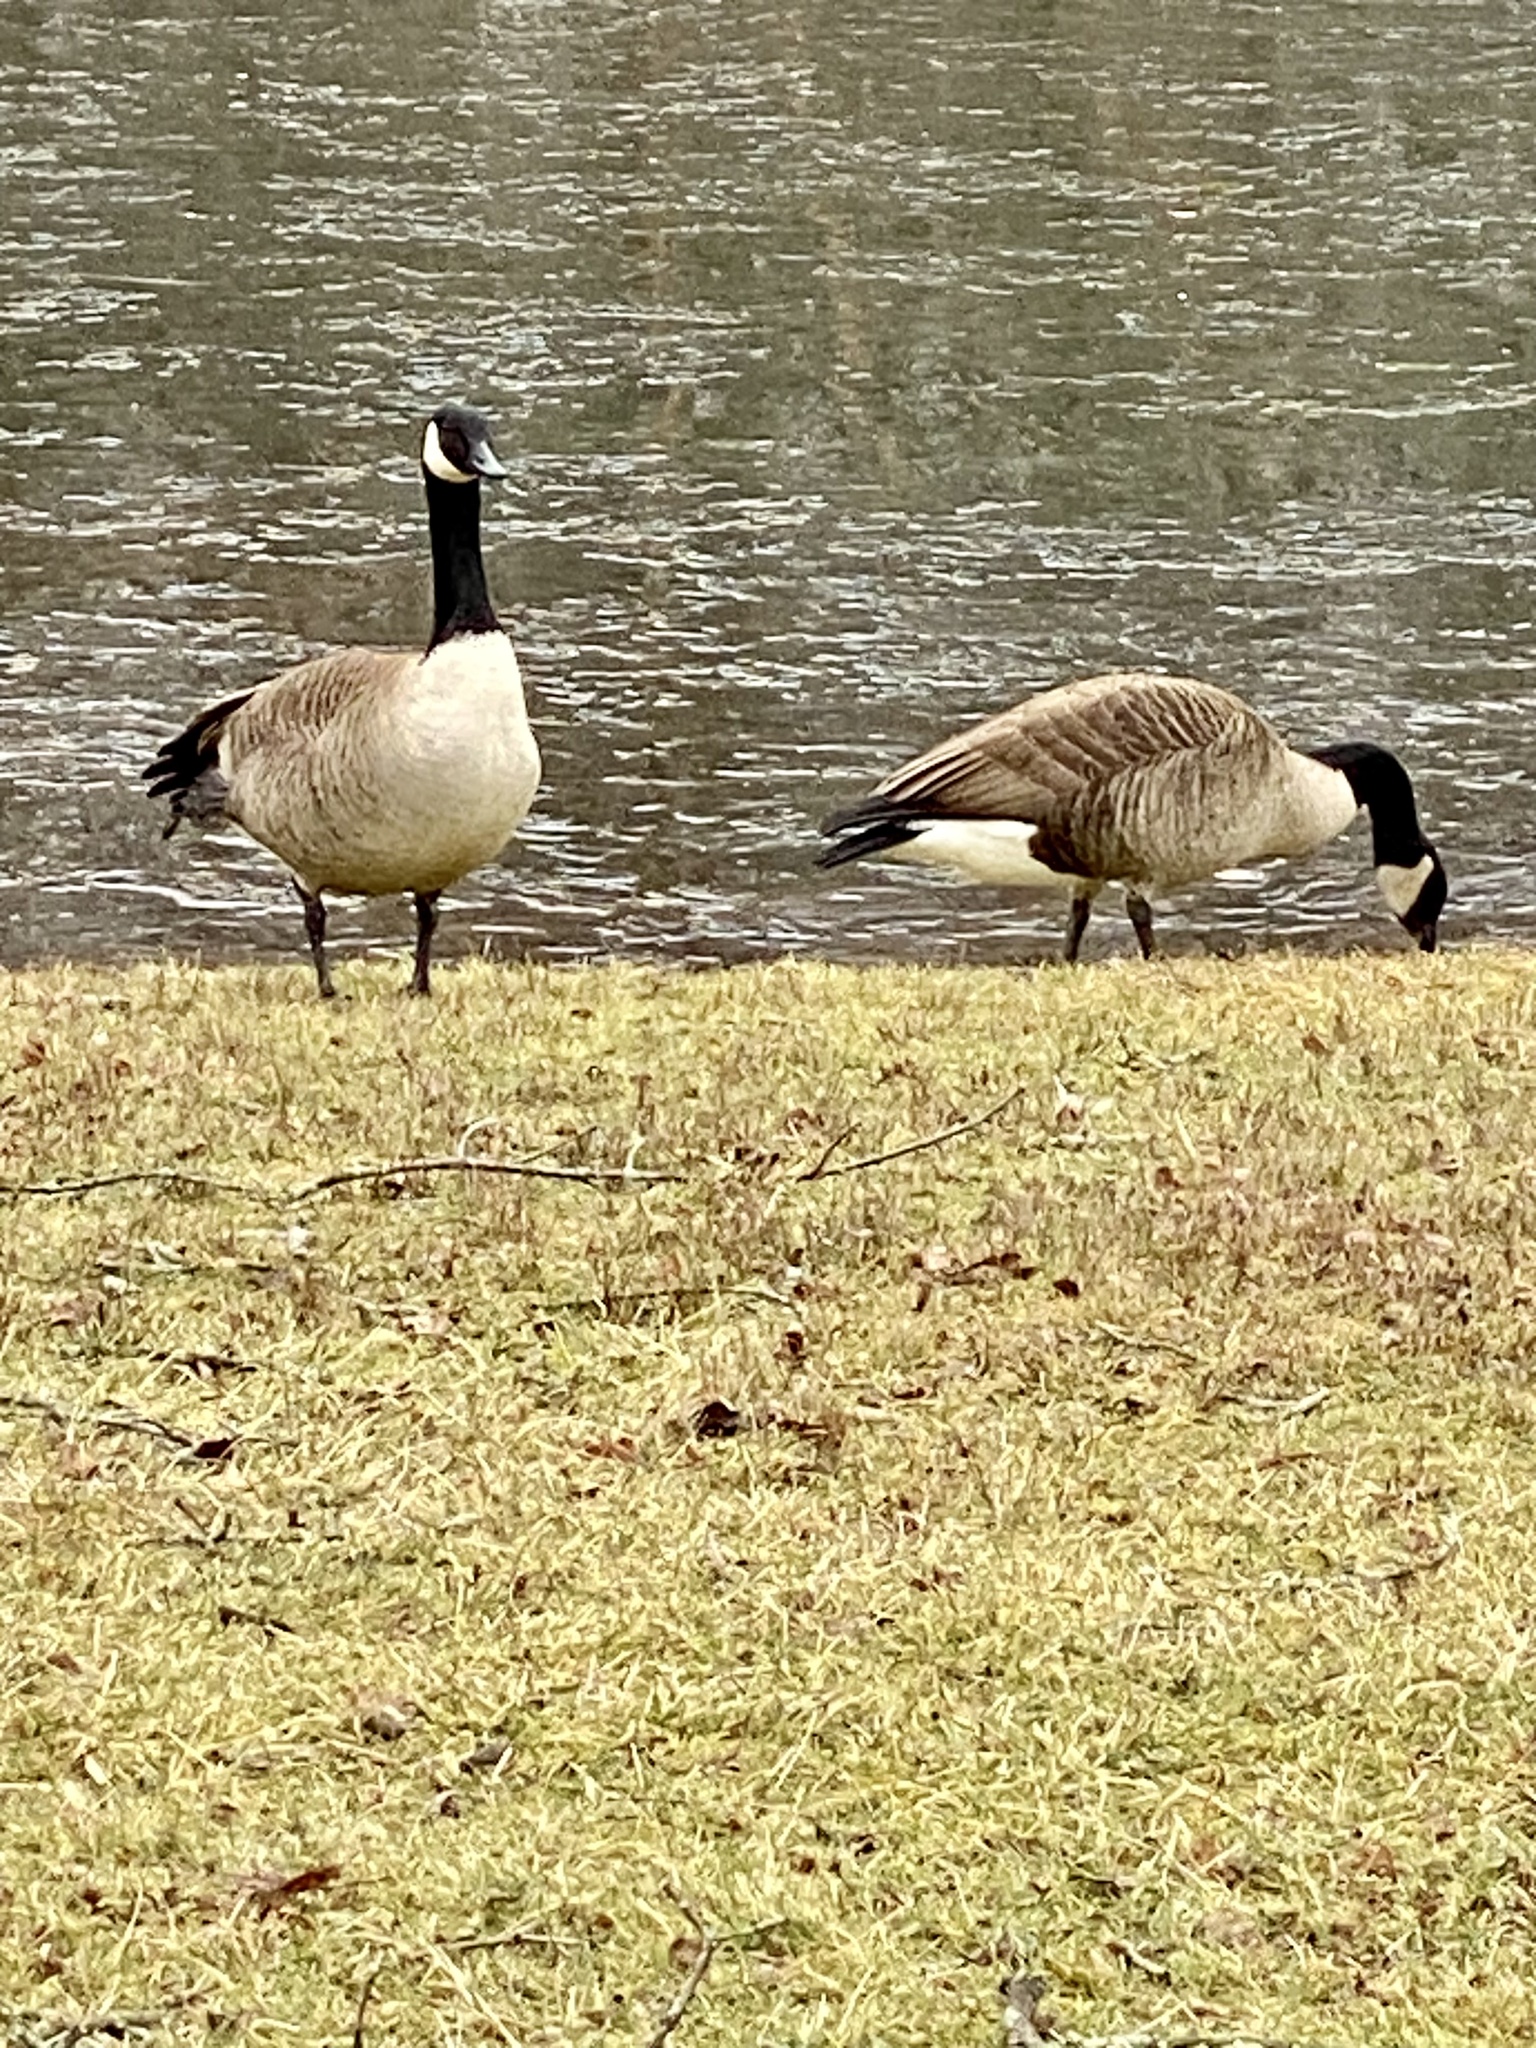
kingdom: Animalia
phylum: Chordata
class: Aves
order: Anseriformes
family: Anatidae
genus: Branta
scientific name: Branta canadensis
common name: Canada goose
